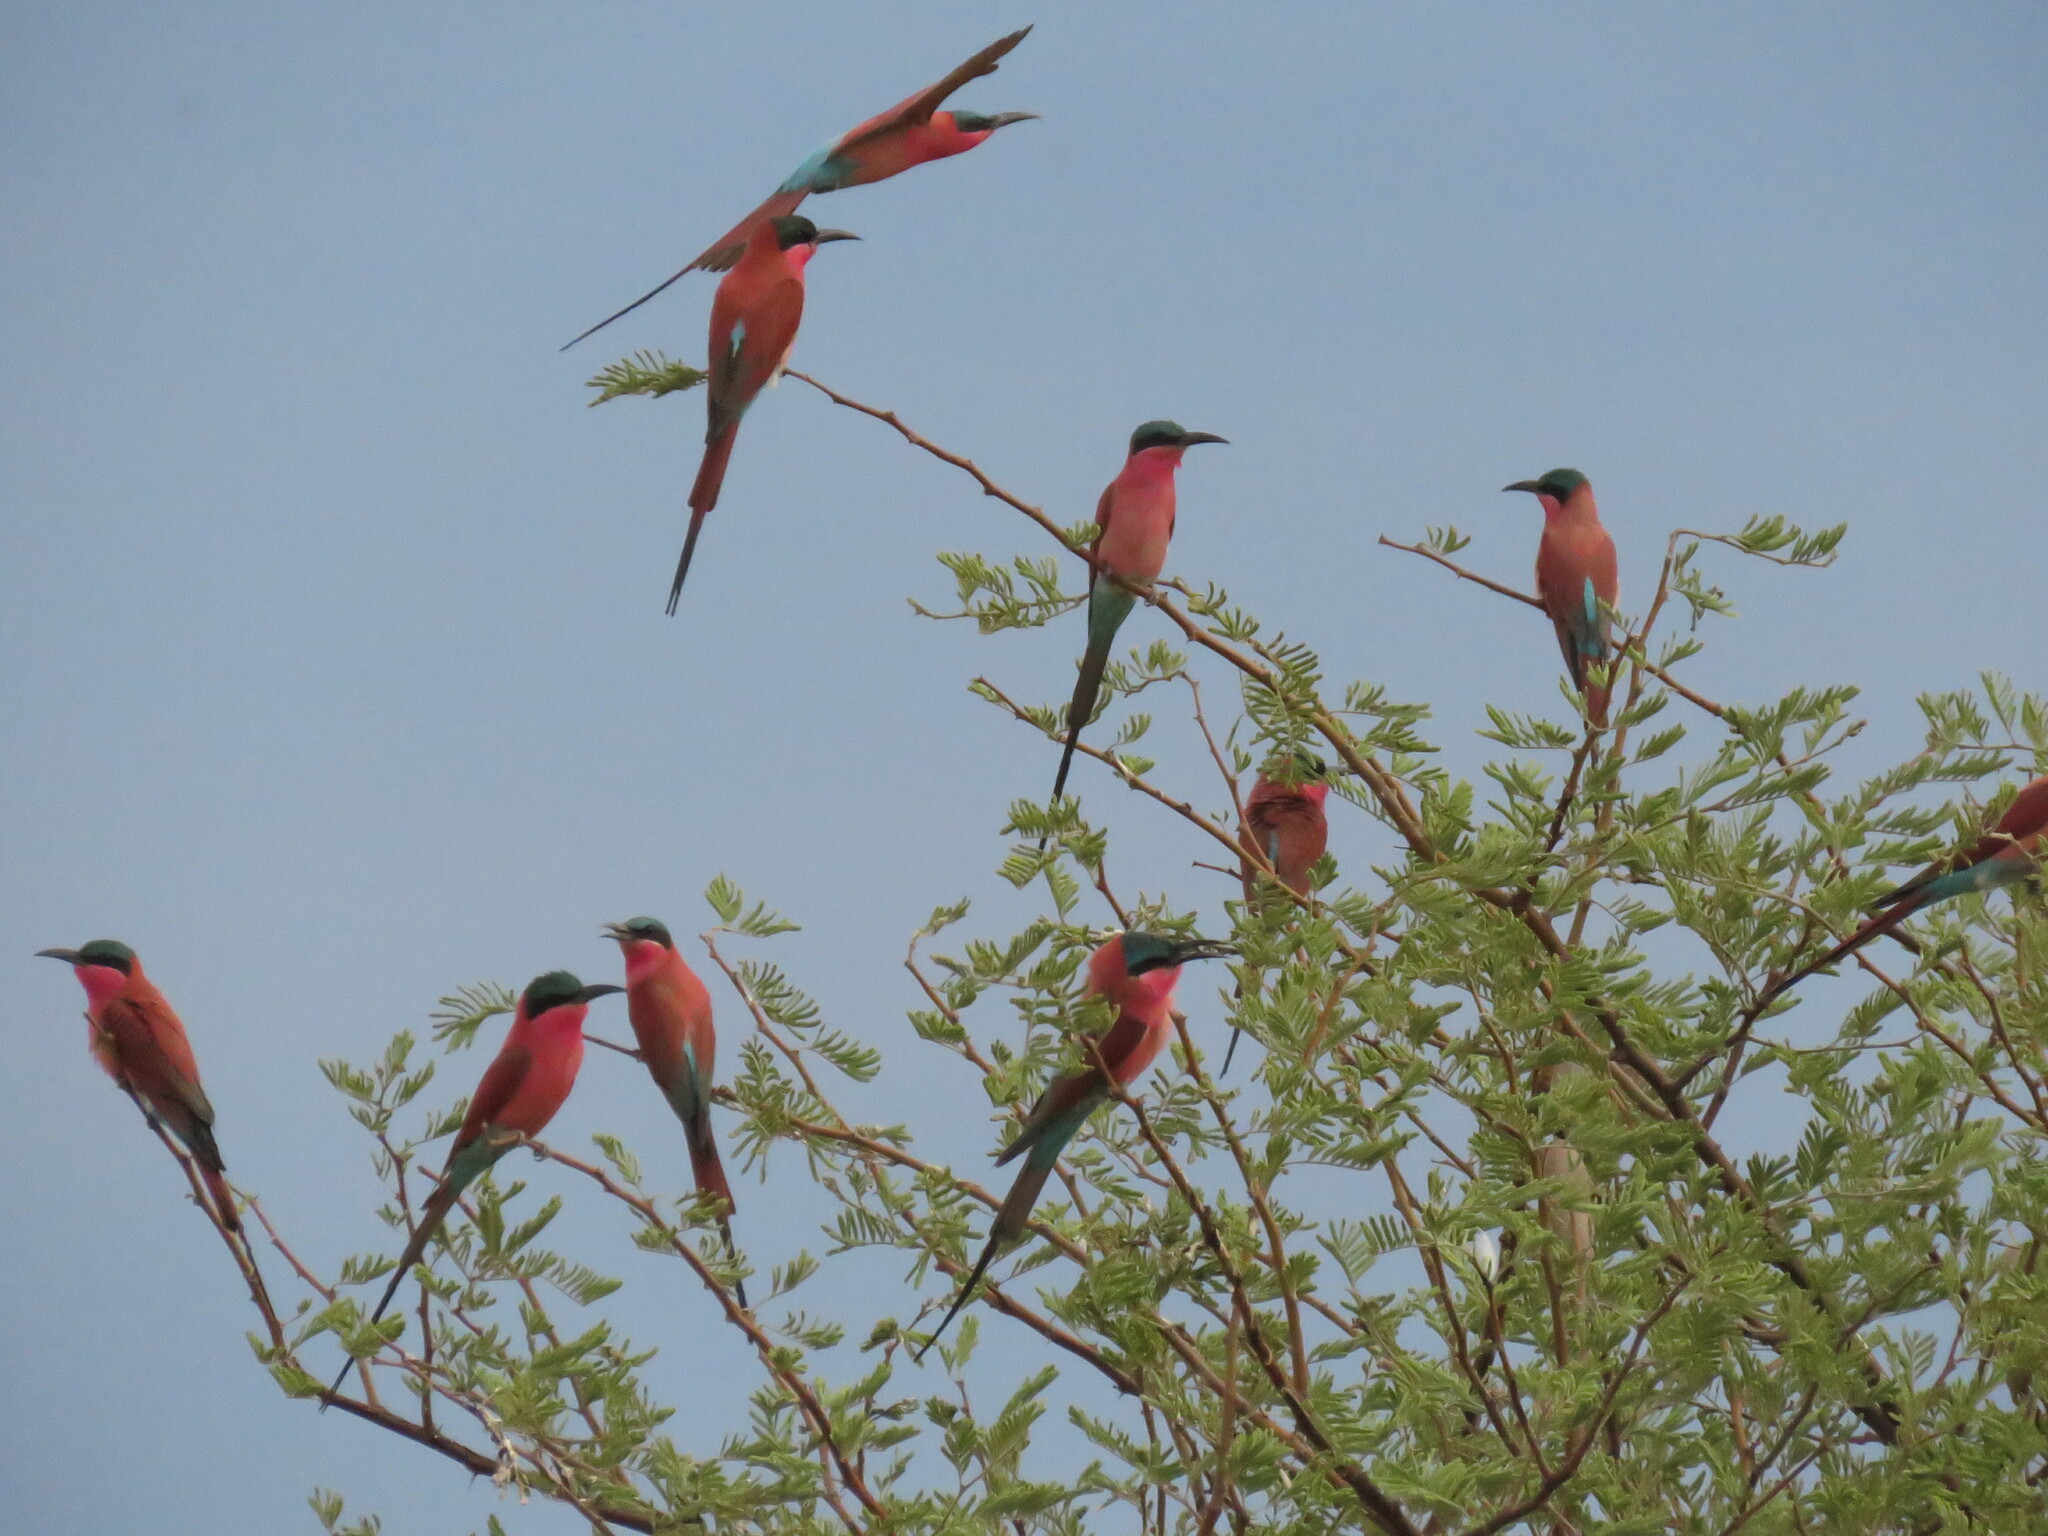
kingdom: Animalia
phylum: Chordata
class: Aves
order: Coraciiformes
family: Meropidae
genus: Merops
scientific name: Merops nubicoides
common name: Southern carmine bee-eater
